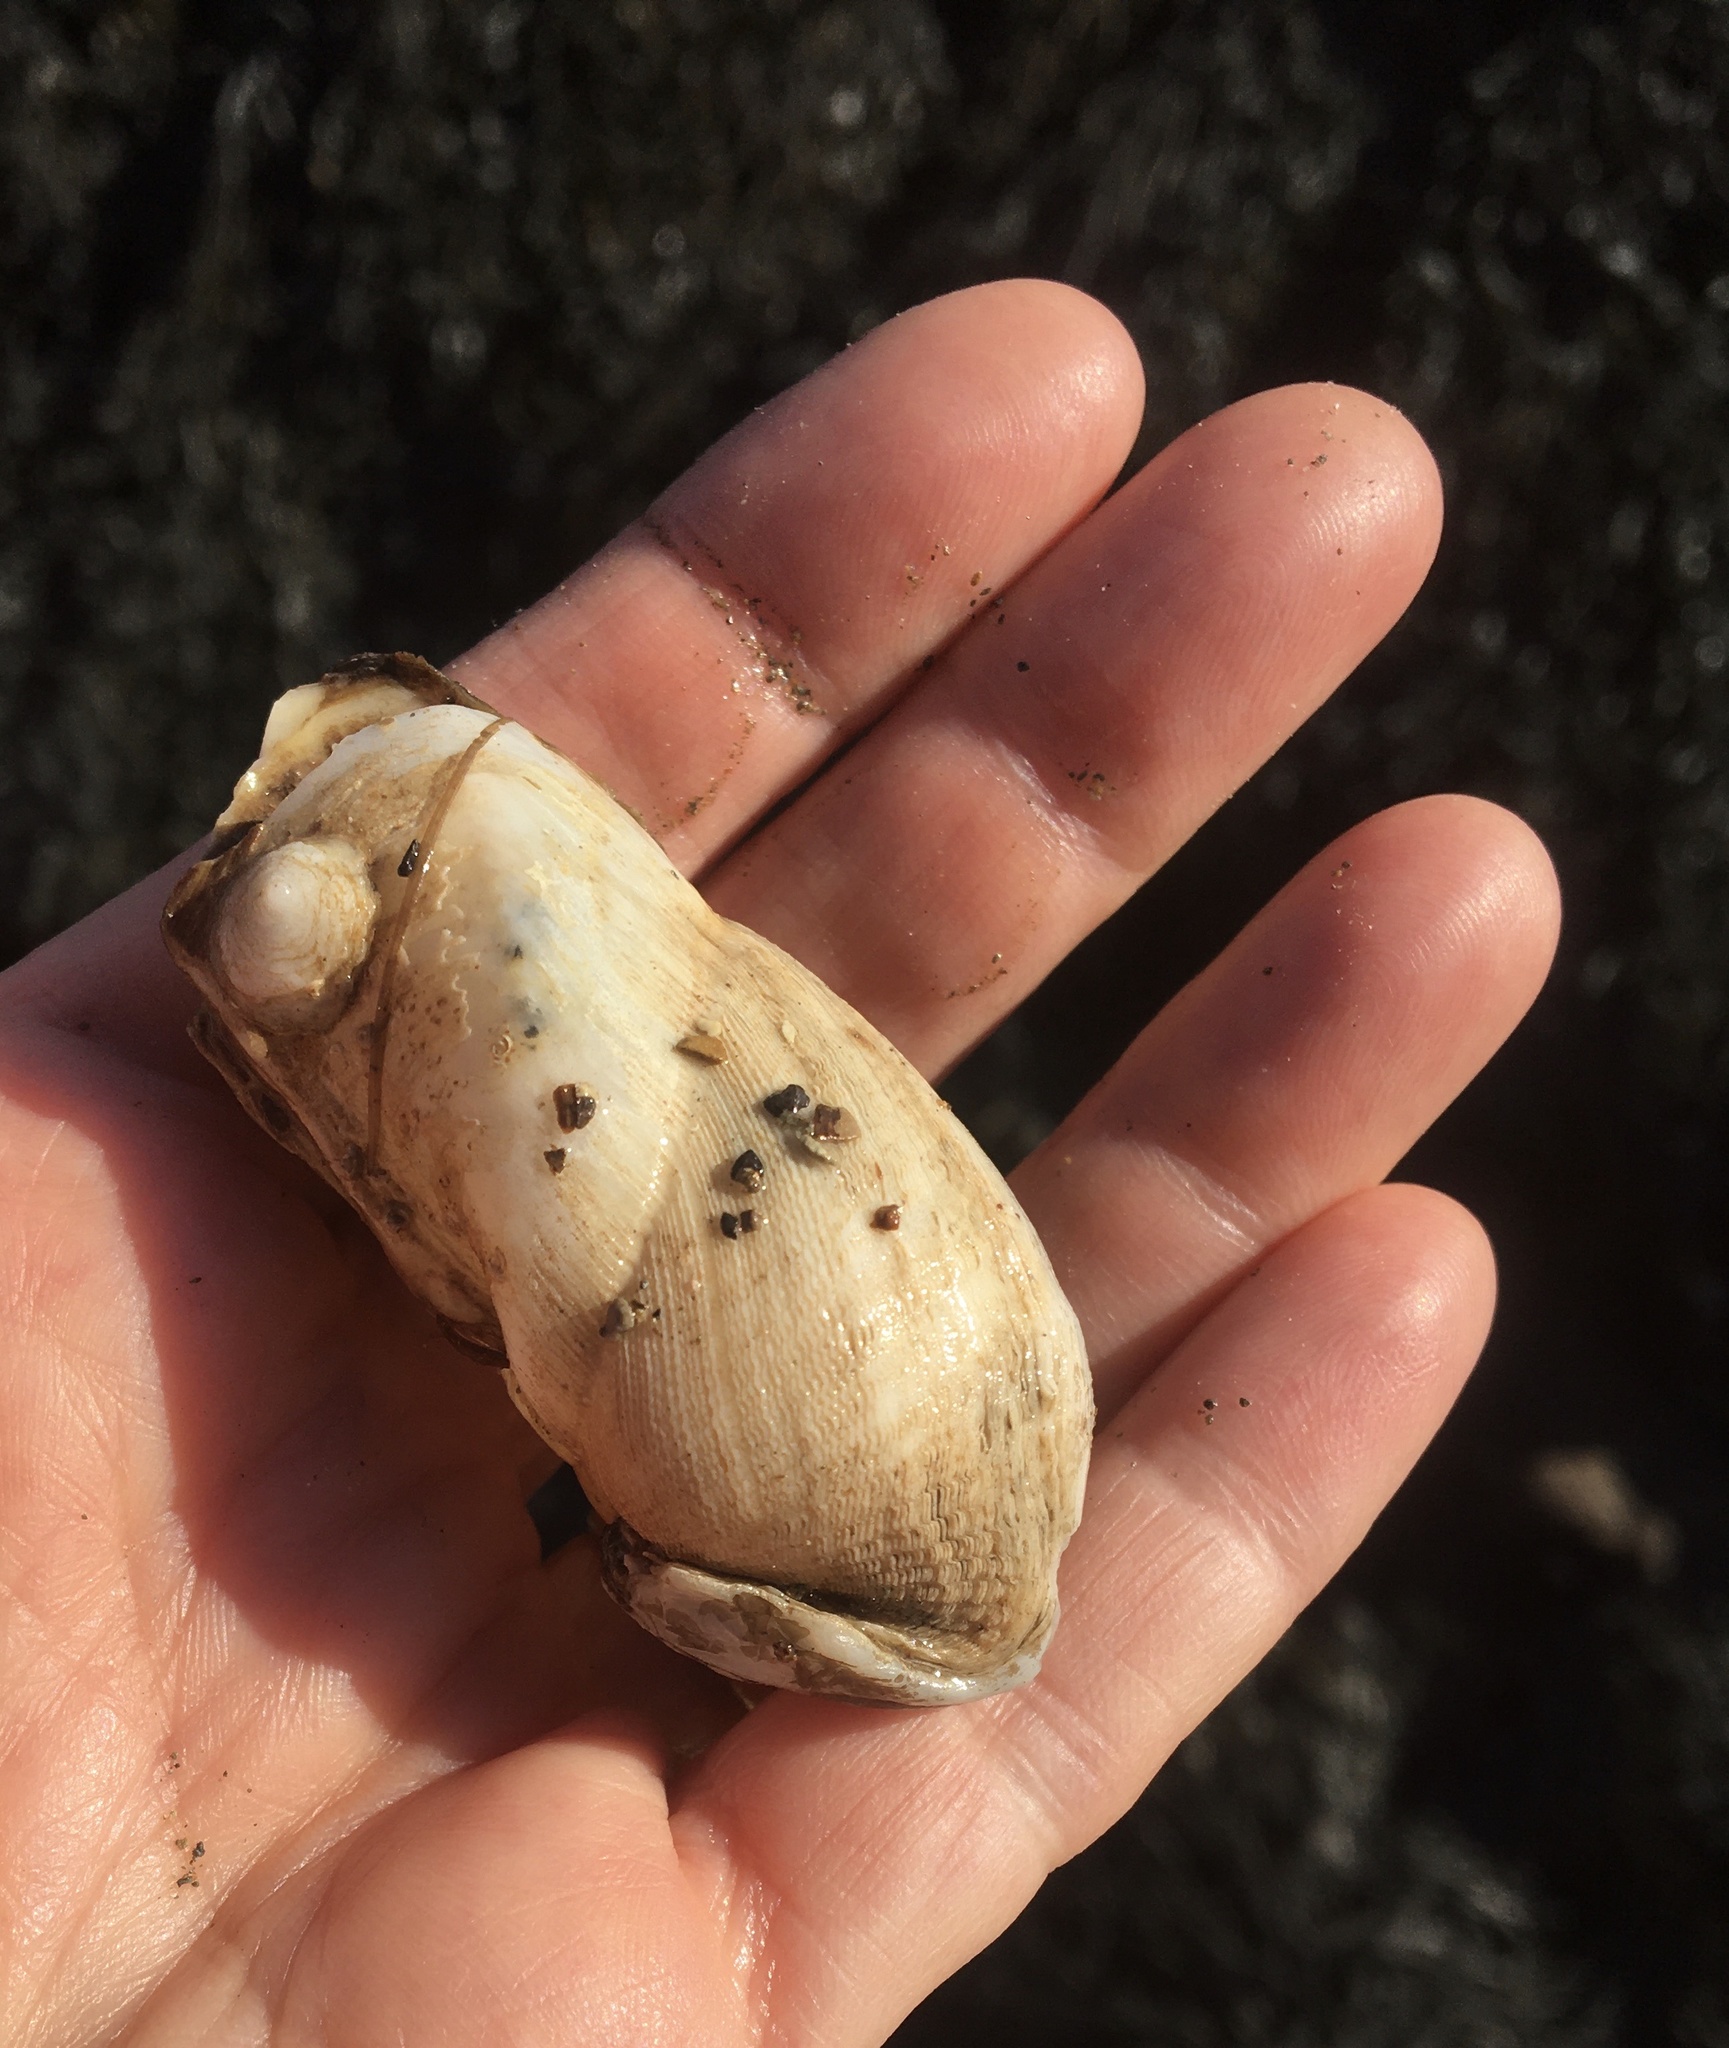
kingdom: Animalia
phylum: Mollusca
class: Bivalvia
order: Myida
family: Pholadidae
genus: Parapholas
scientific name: Parapholas californica
